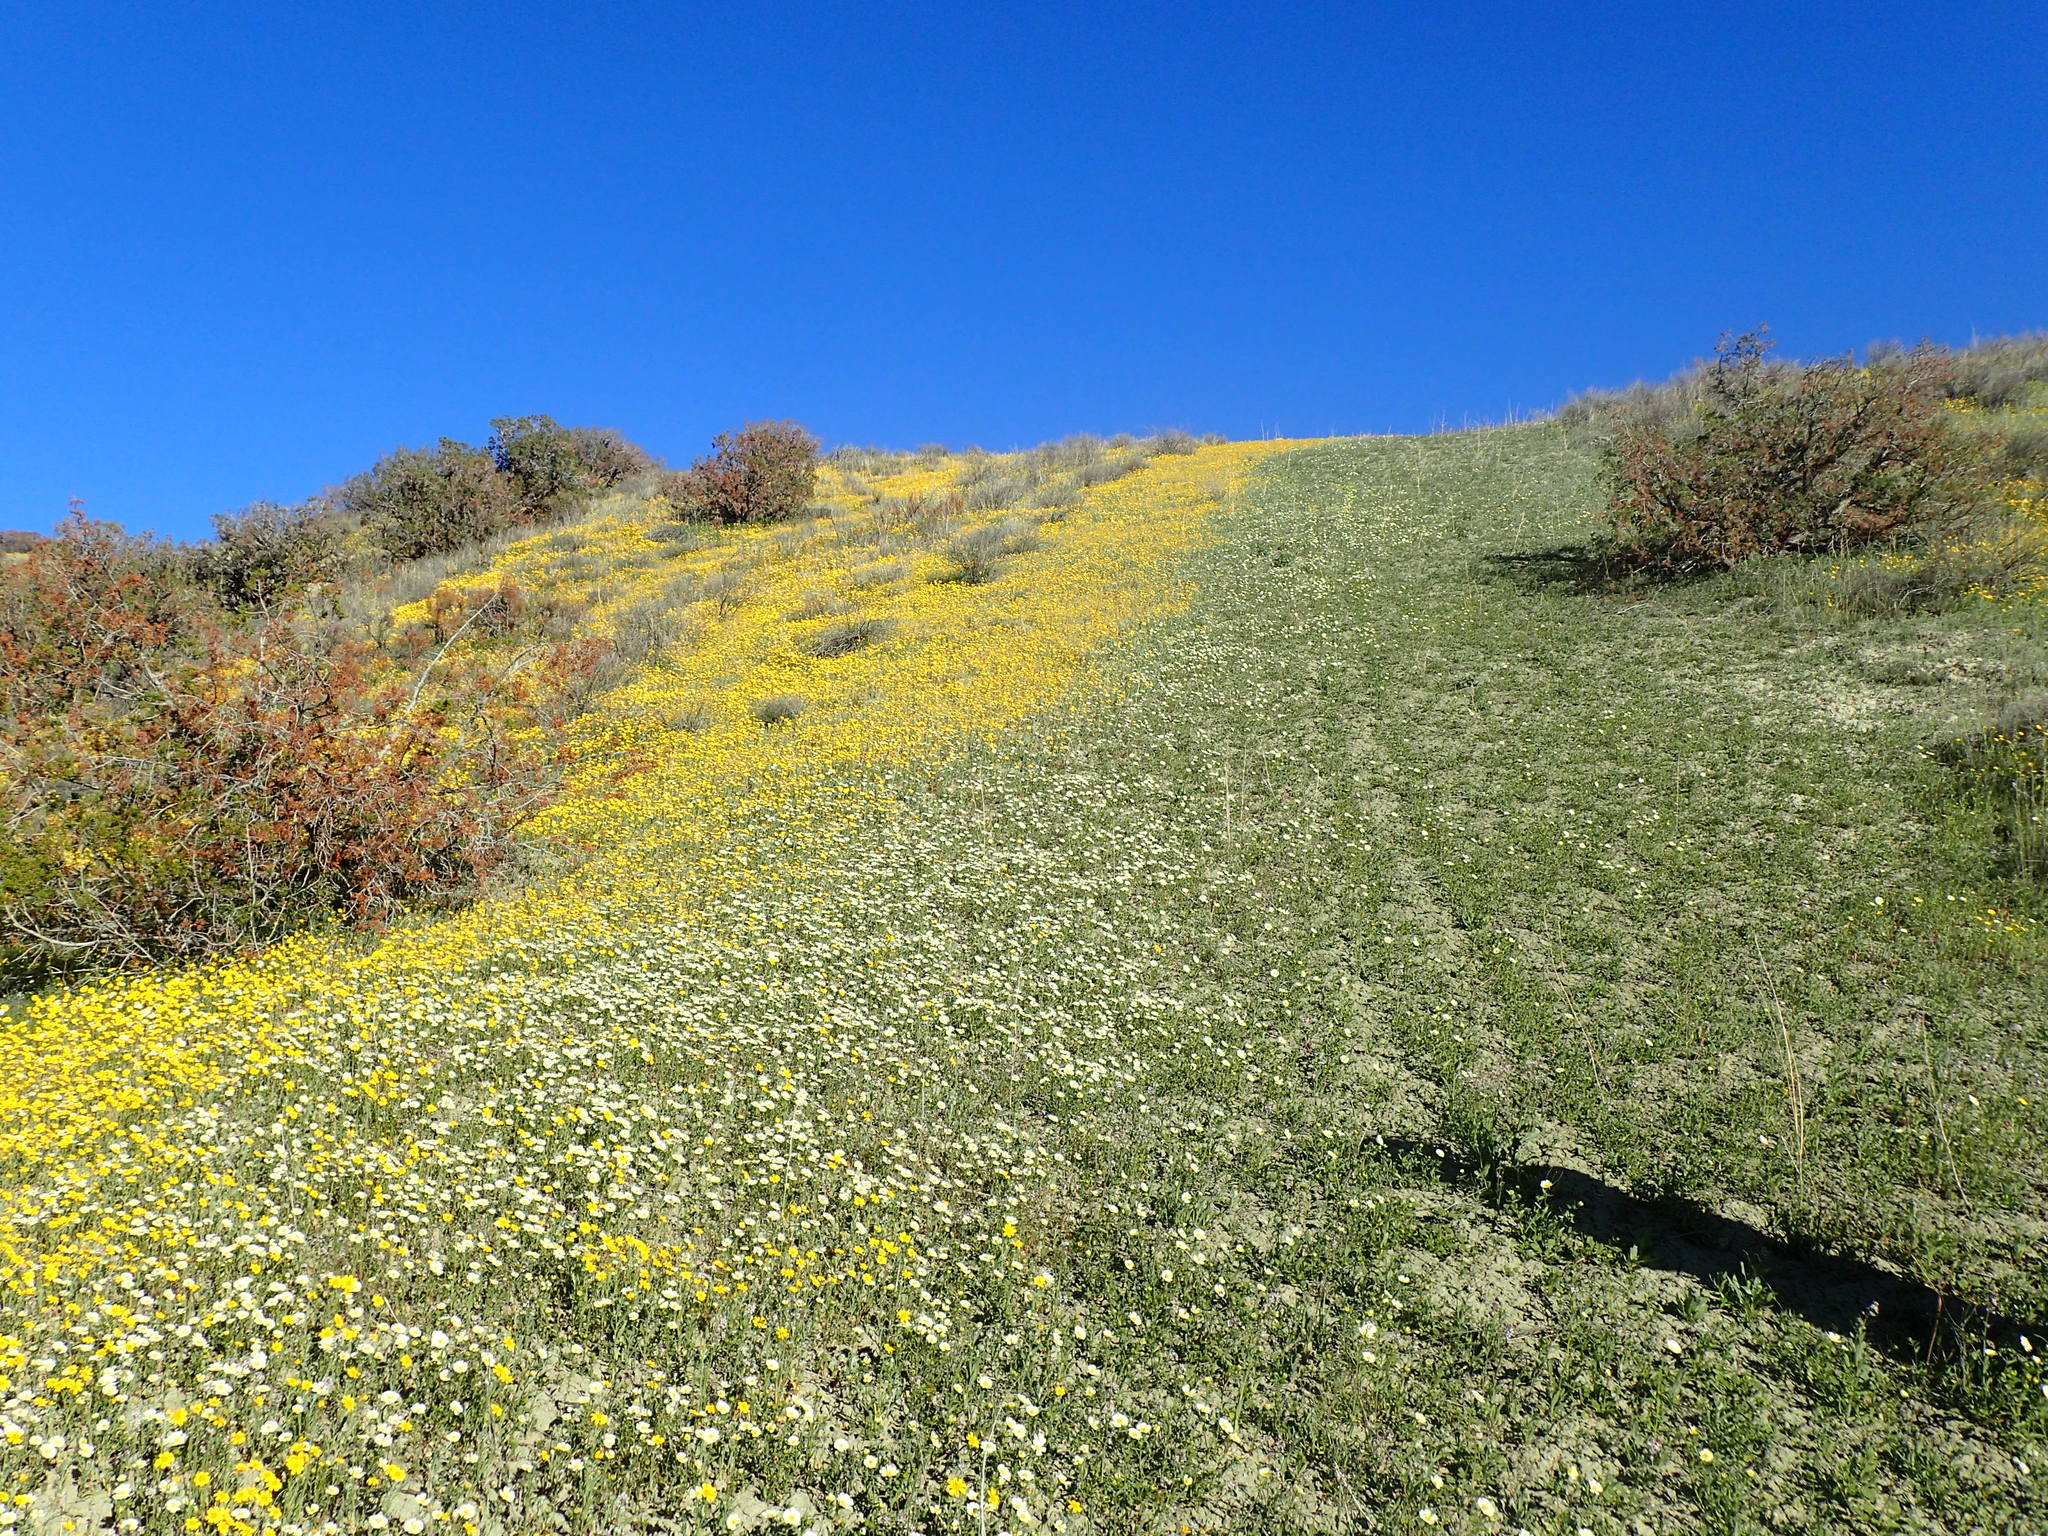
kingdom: Plantae
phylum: Tracheophyta
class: Magnoliopsida
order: Asterales
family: Asteraceae
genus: Layia
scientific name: Layia heterotricha
